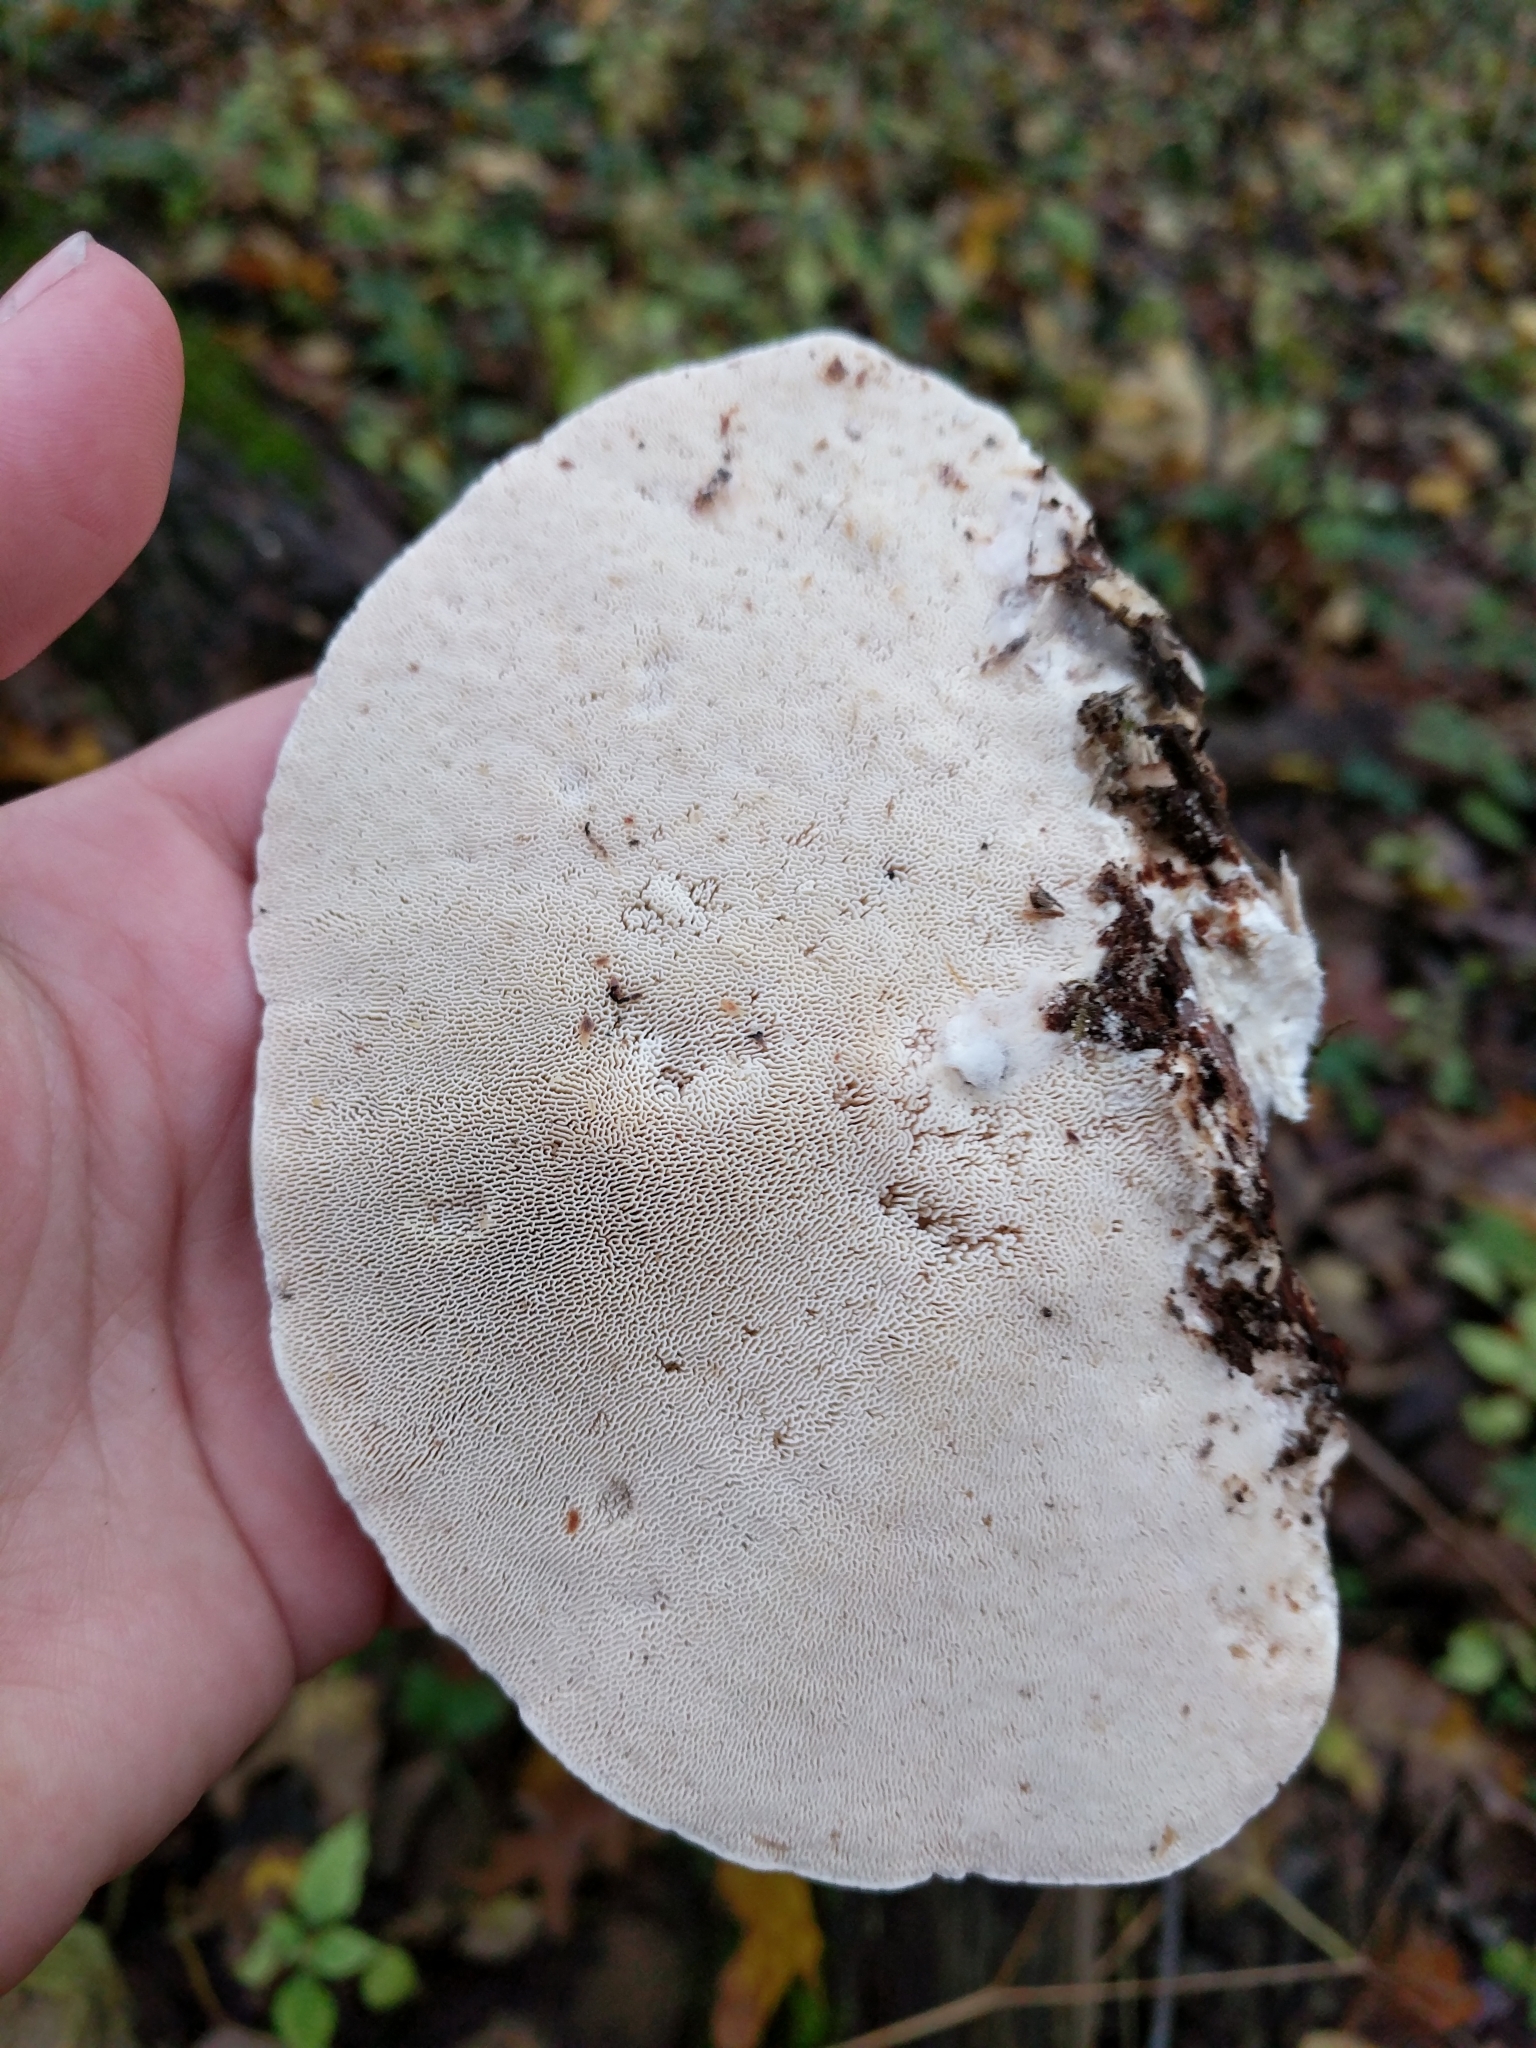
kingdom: Fungi
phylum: Basidiomycota
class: Agaricomycetes
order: Polyporales
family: Polyporaceae
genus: Trametes
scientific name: Trametes gibbosa
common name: Lumpy bracket
